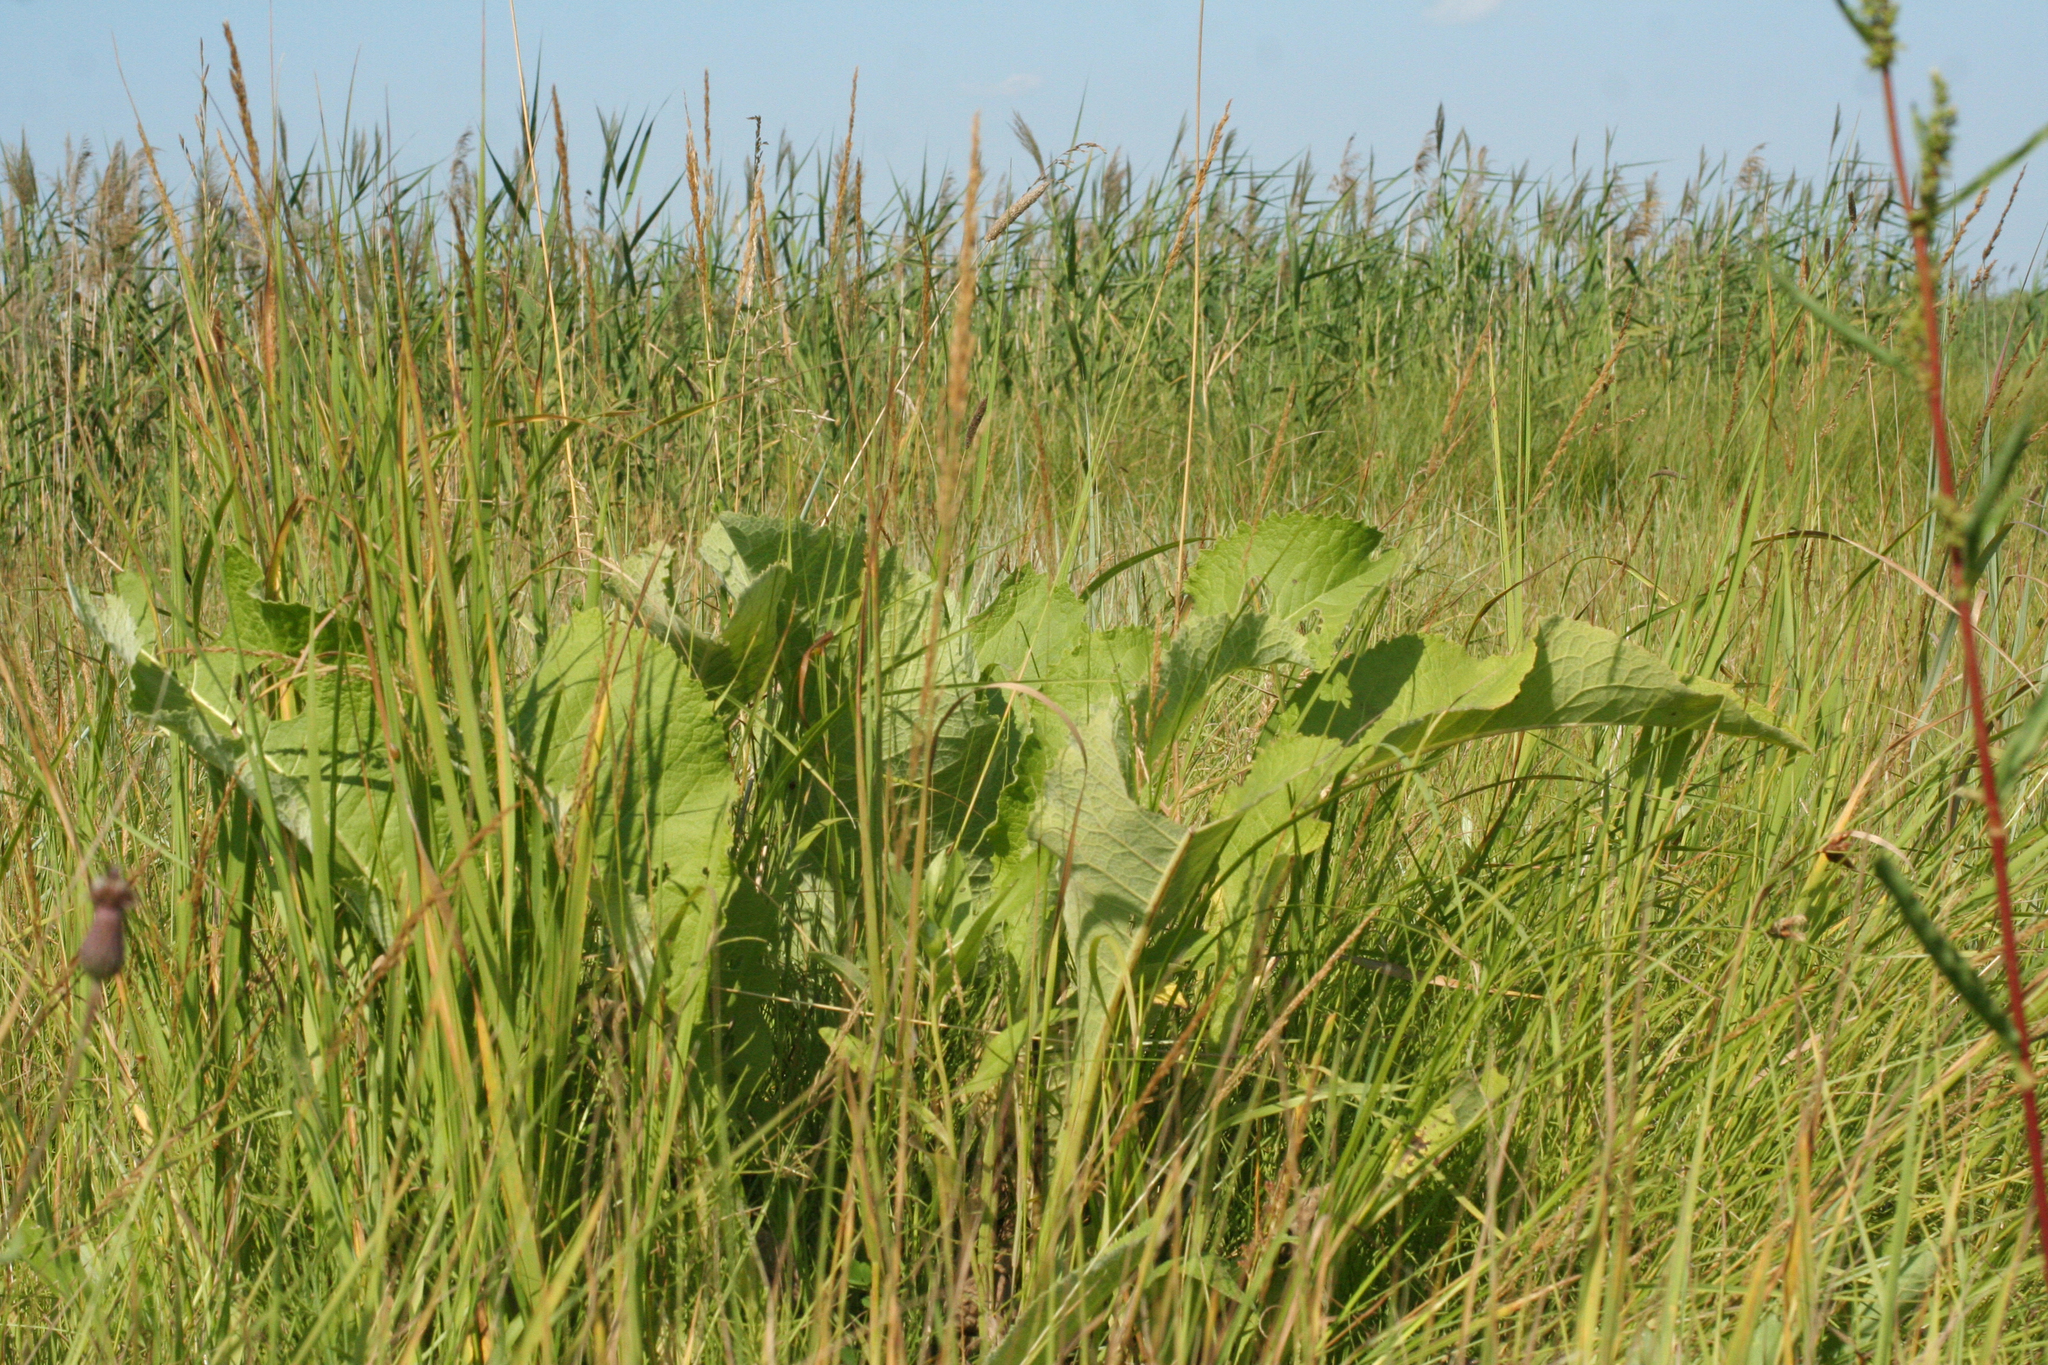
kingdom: Plantae
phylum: Tracheophyta
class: Magnoliopsida
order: Asterales
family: Asteraceae
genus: Inula
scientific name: Inula helenium
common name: Elecampane
